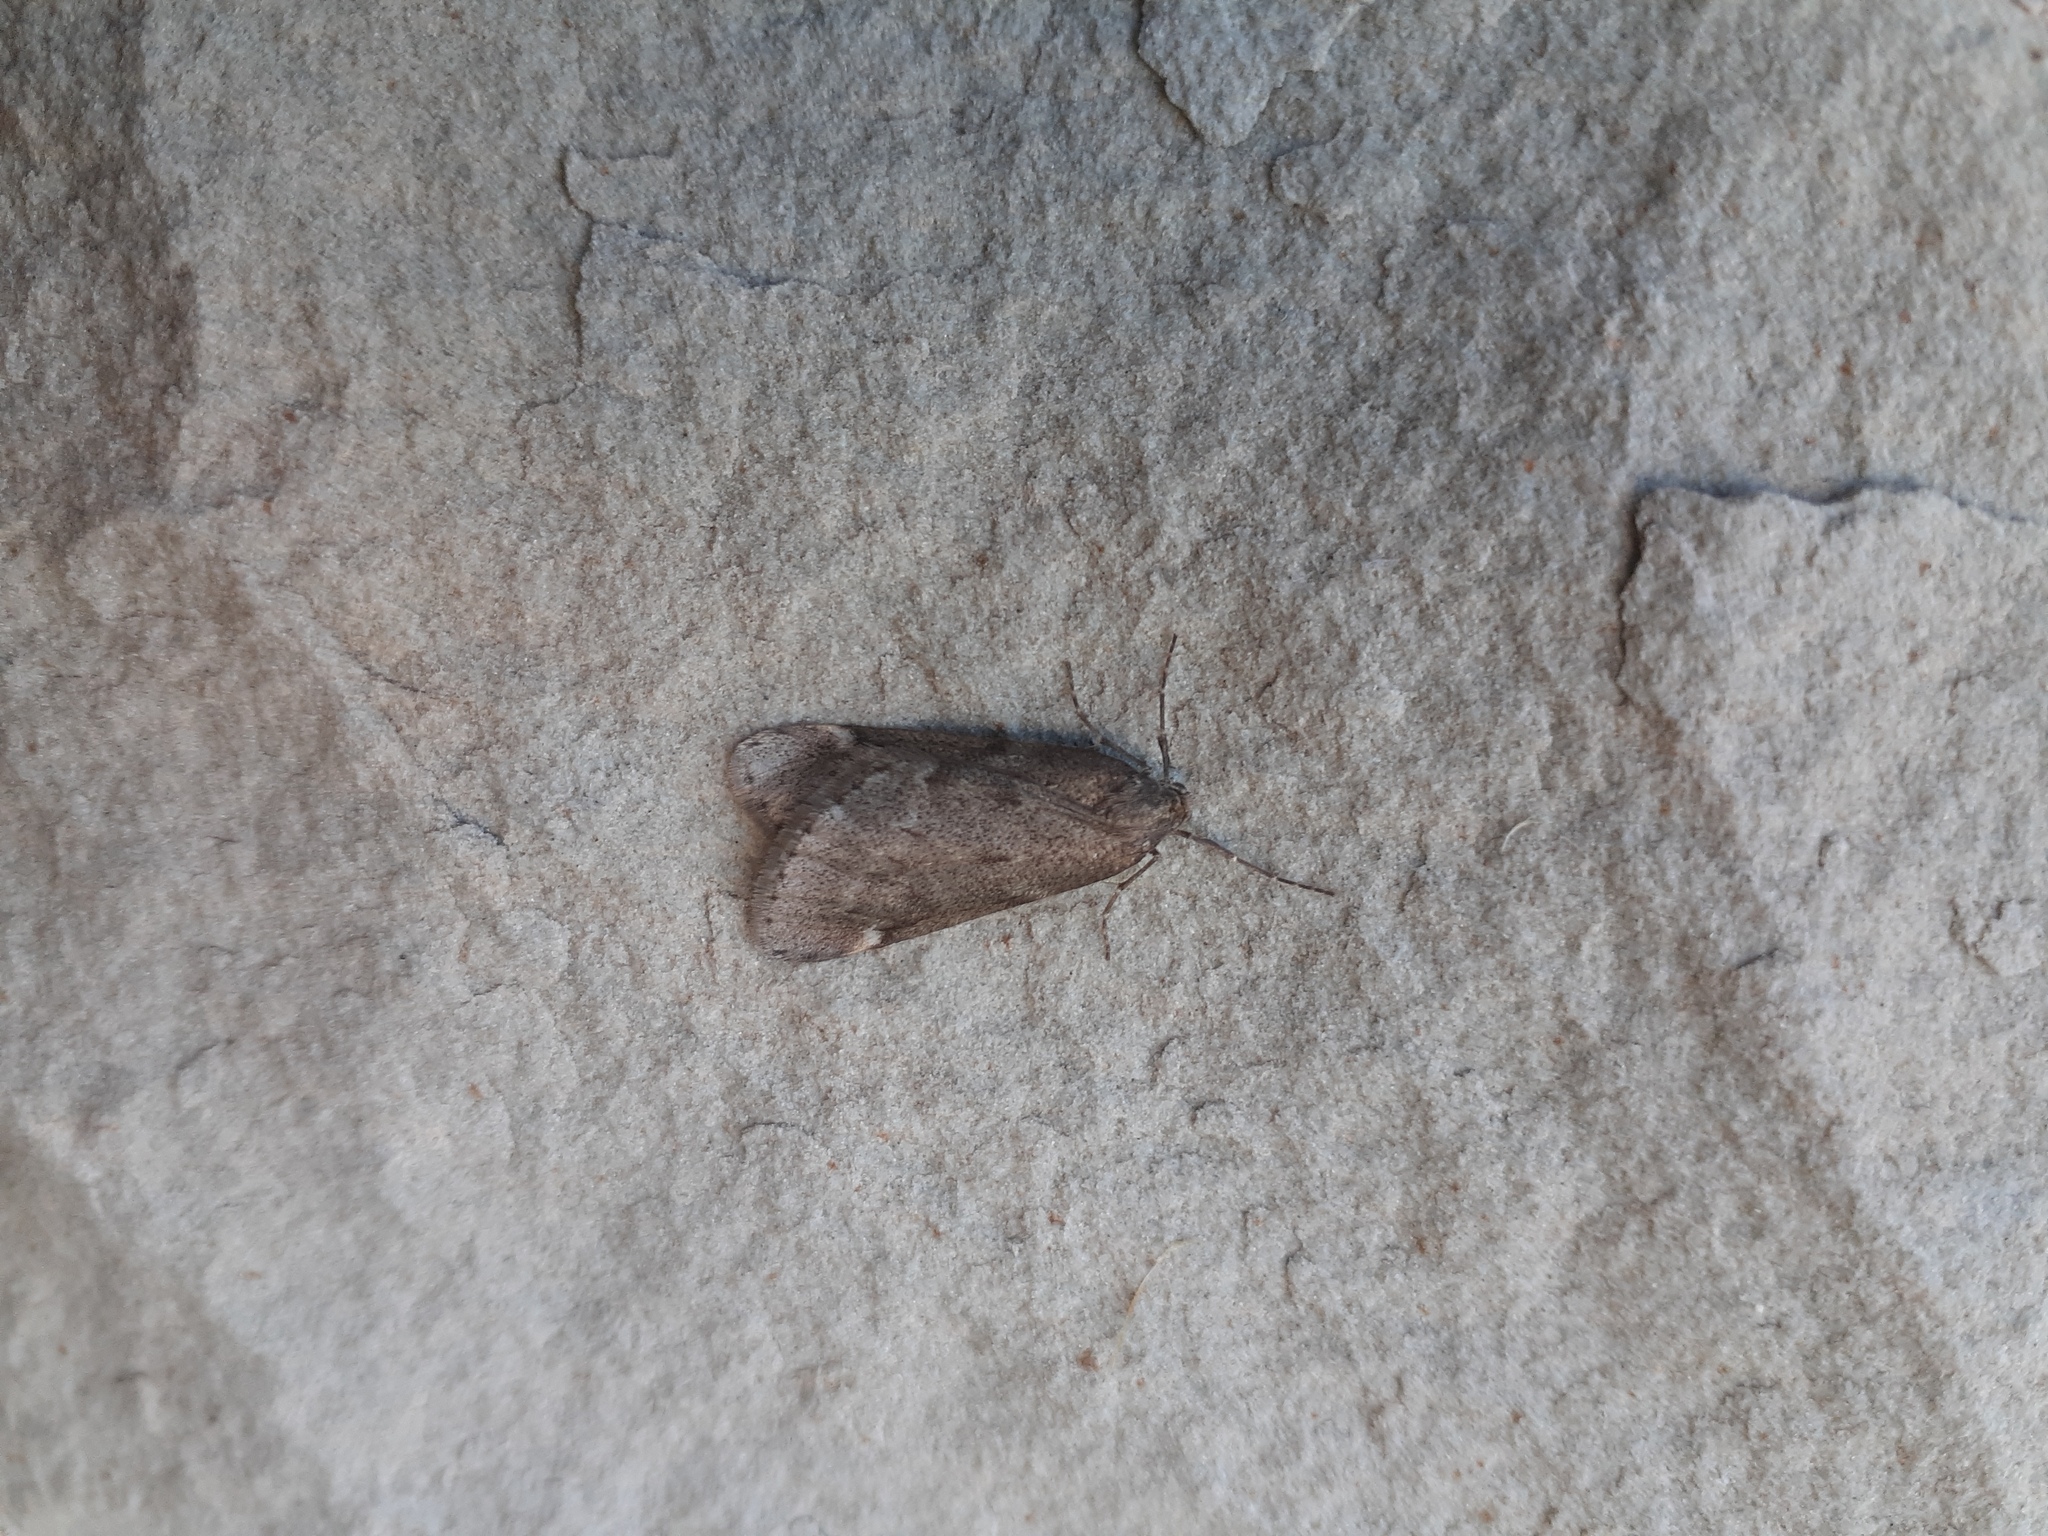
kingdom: Animalia
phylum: Arthropoda
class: Insecta
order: Lepidoptera
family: Geometridae
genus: Alsophila
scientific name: Alsophila pometaria
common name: Fall cankerworm
